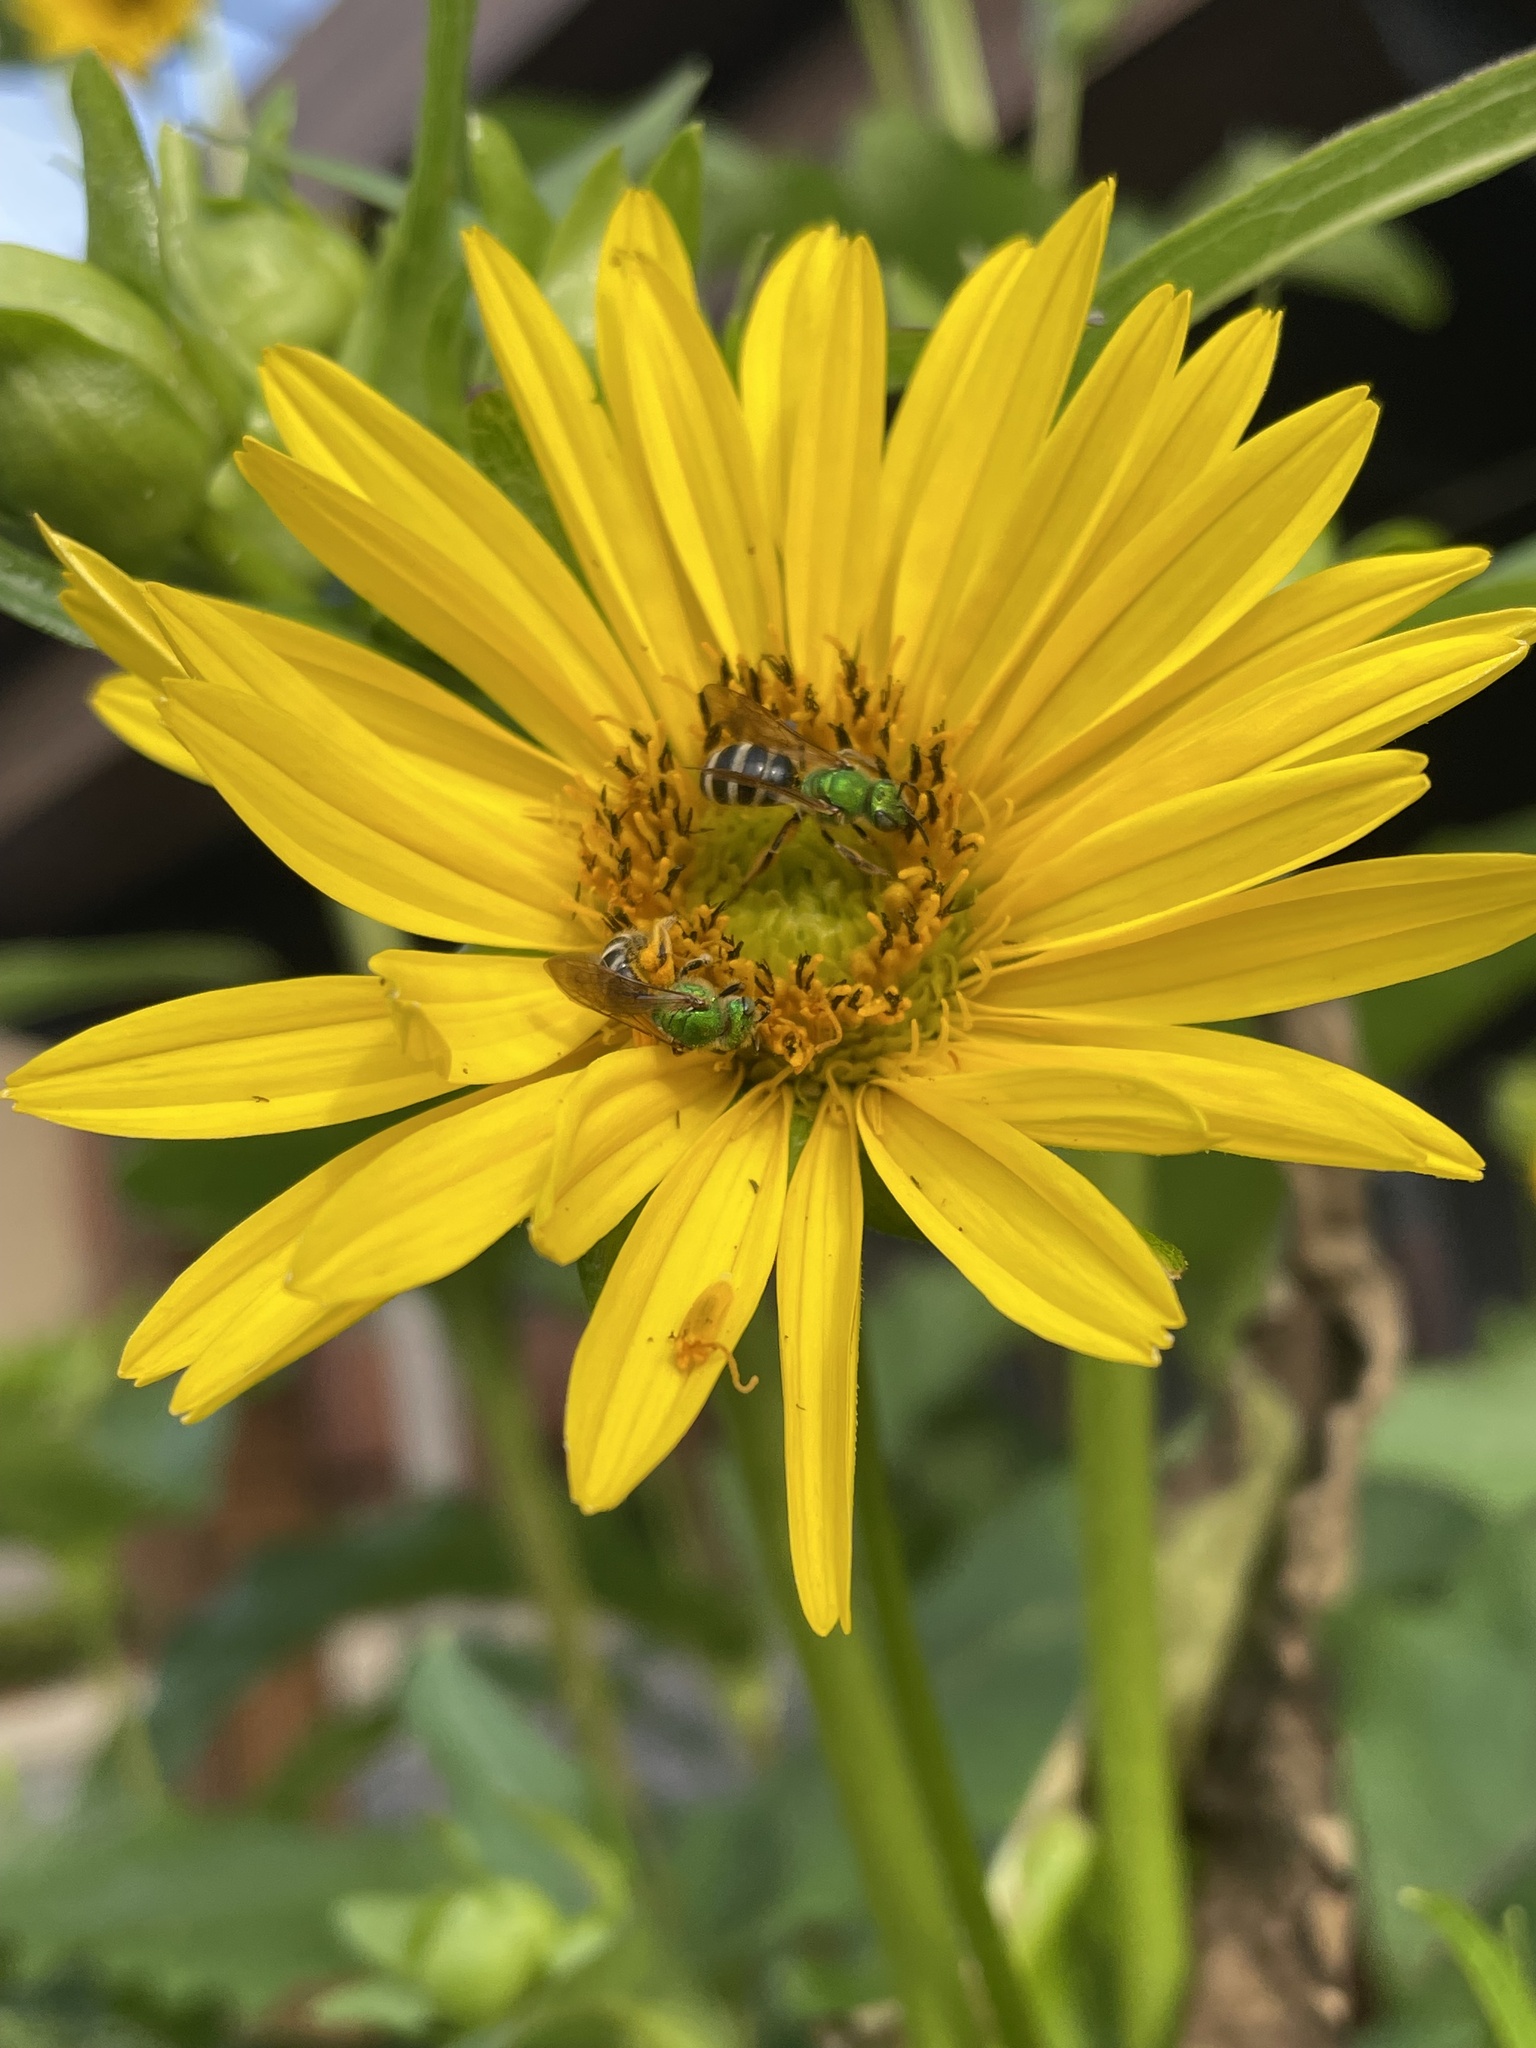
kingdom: Animalia
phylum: Arthropoda
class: Insecta
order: Hymenoptera
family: Halictidae
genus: Agapostemon
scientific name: Agapostemon virescens
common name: Bicolored striped sweat bee
